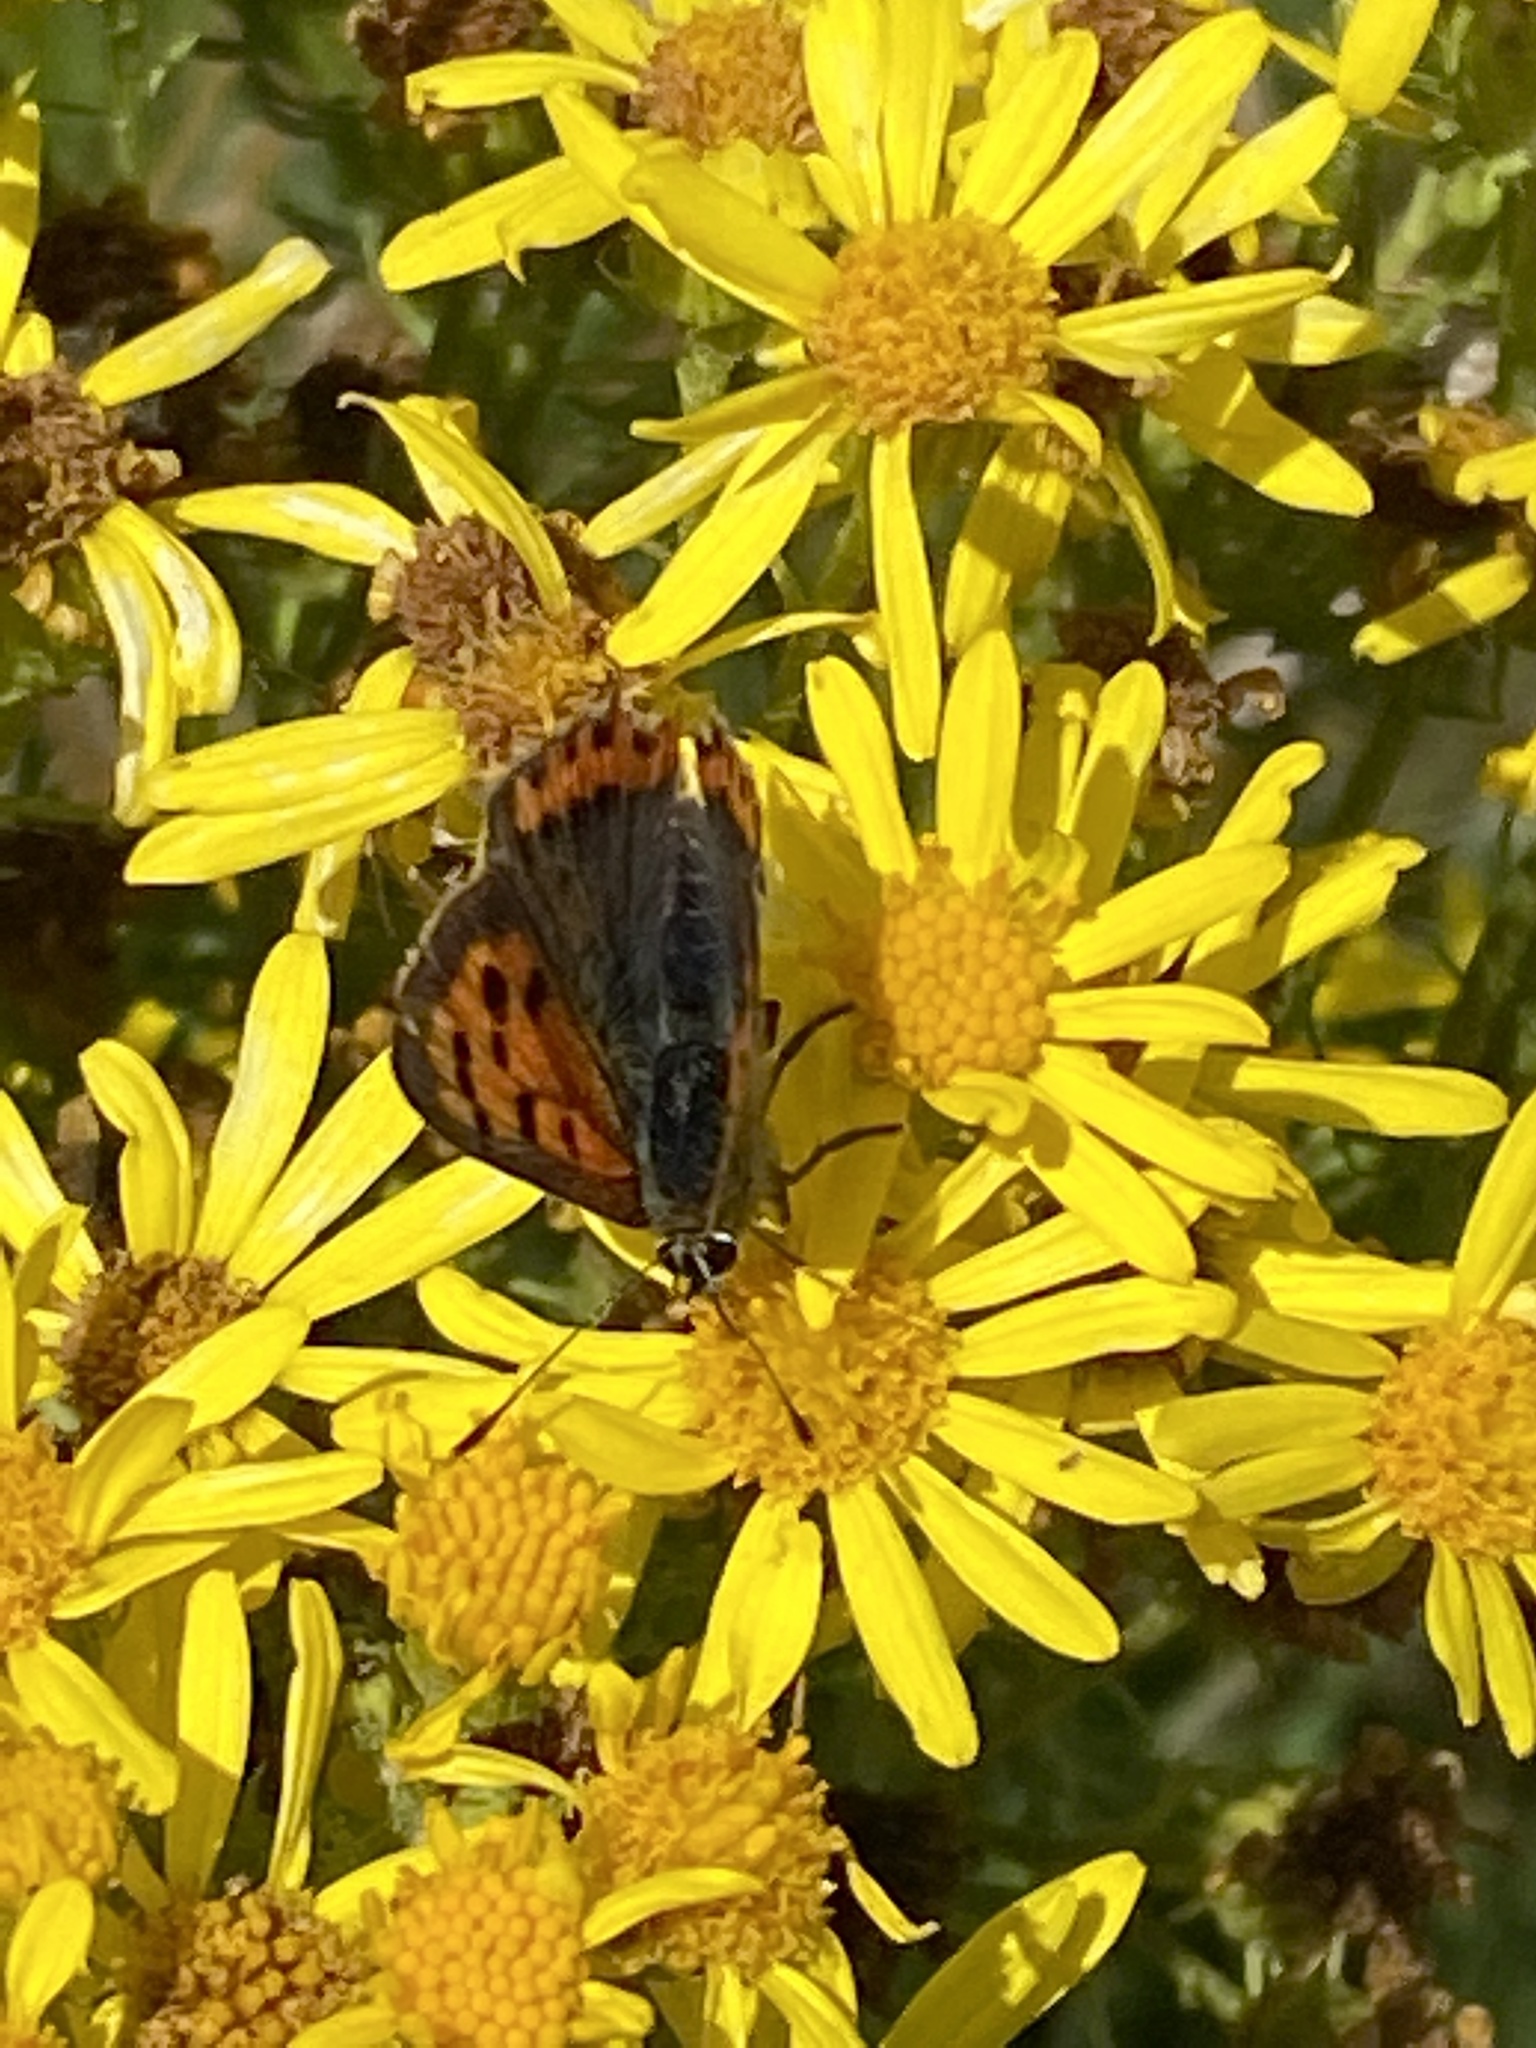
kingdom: Animalia
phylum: Arthropoda
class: Insecta
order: Lepidoptera
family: Lycaenidae
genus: Lycaena
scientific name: Lycaena phlaeas
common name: Small copper
